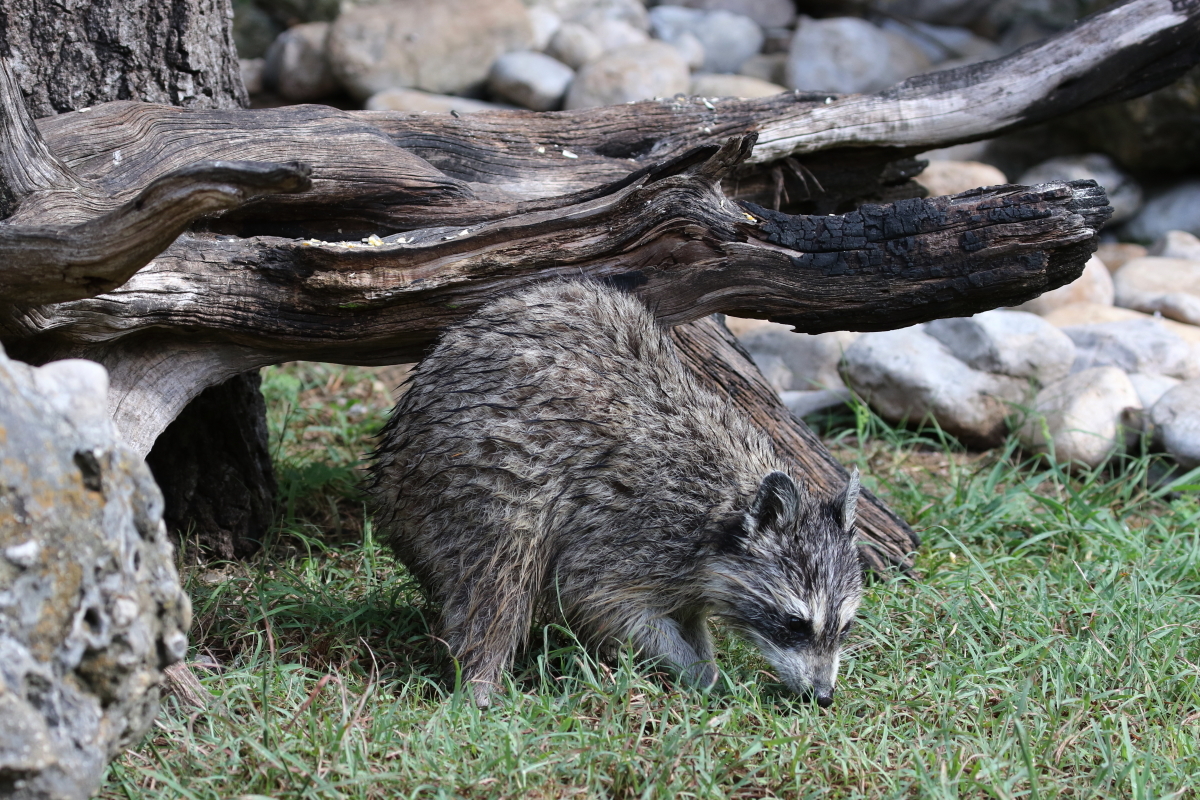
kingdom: Animalia
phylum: Chordata
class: Mammalia
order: Carnivora
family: Procyonidae
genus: Procyon
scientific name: Procyon lotor
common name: Raccoon
